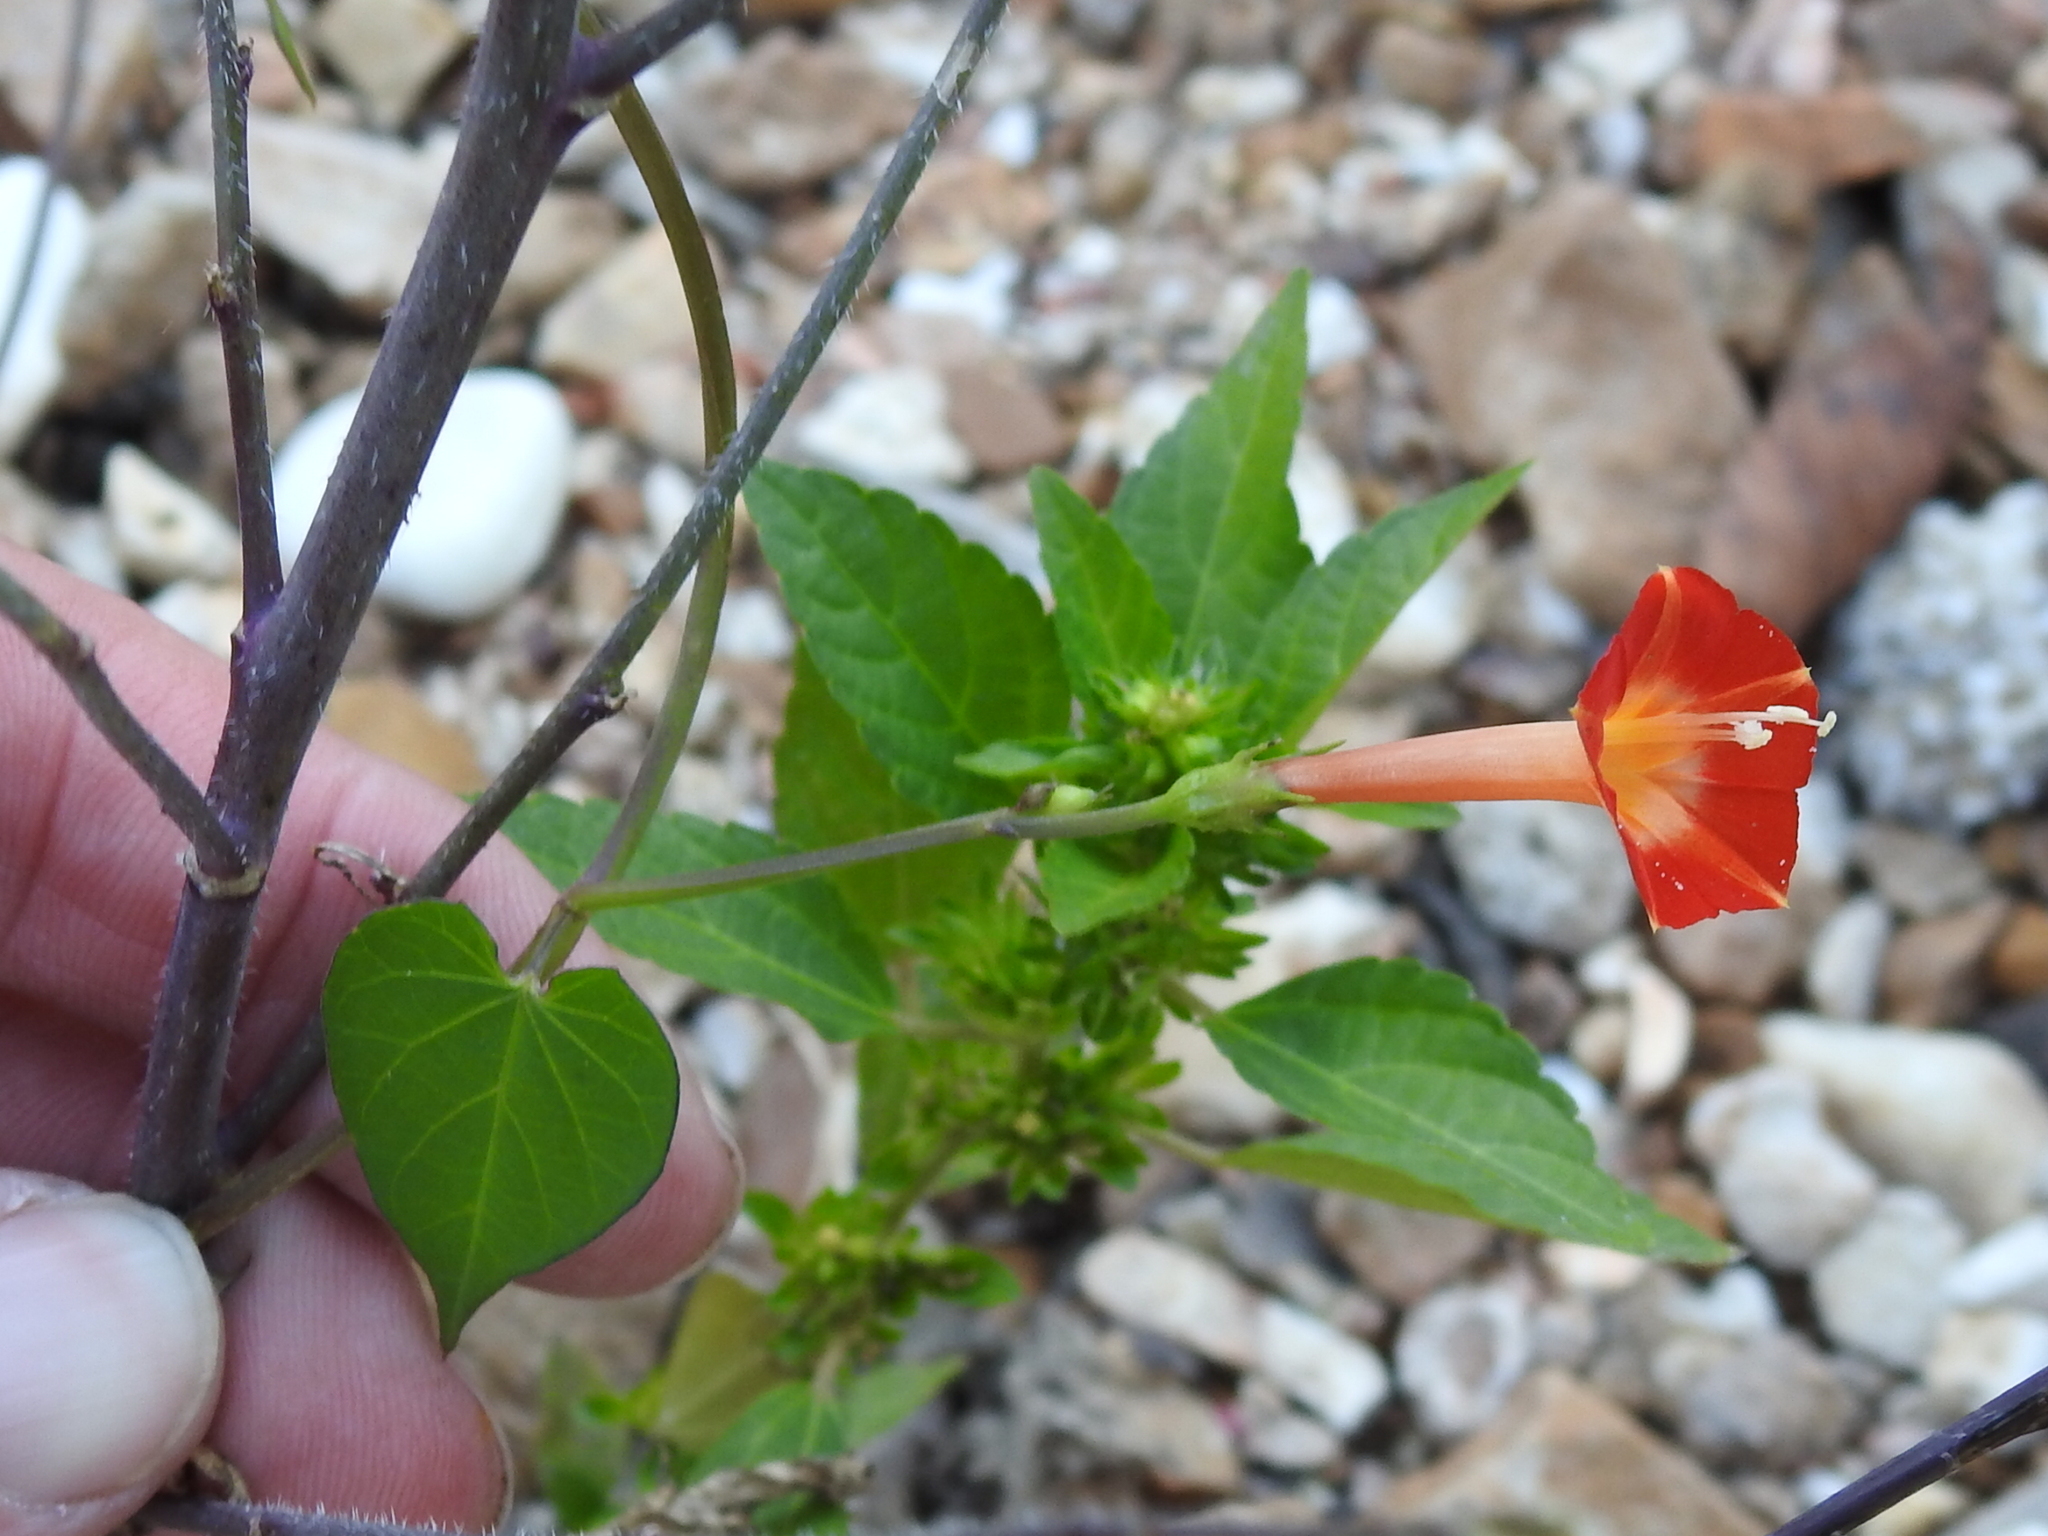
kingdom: Plantae
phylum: Tracheophyta
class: Magnoliopsida
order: Solanales
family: Convolvulaceae
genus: Ipomoea
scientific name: Ipomoea coccinea
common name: Red morning-glory
